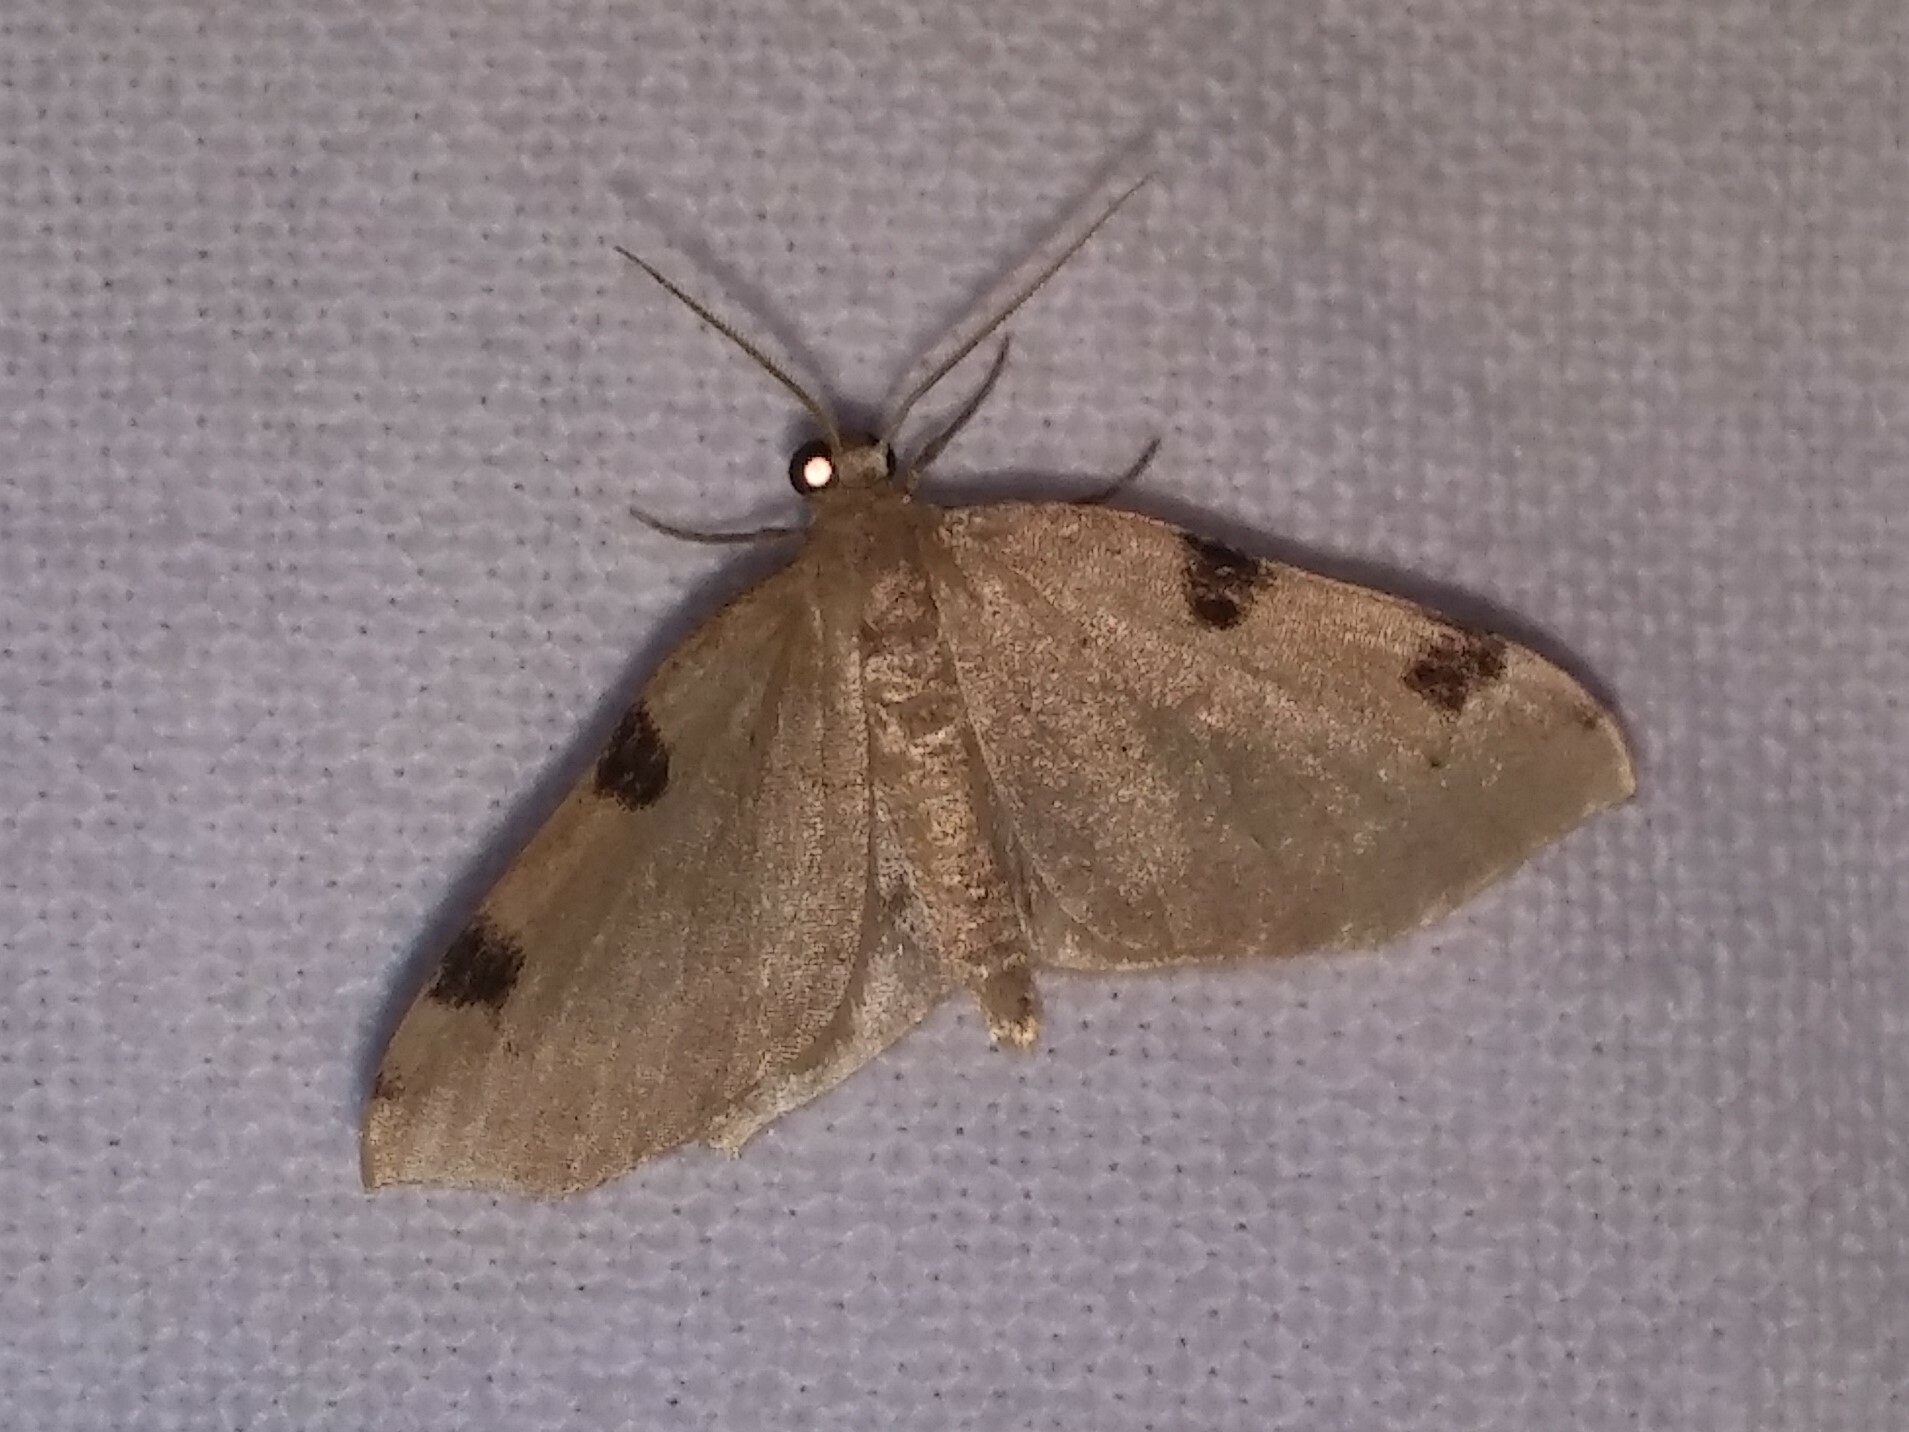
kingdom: Animalia
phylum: Arthropoda
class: Insecta
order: Lepidoptera
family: Geometridae
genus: Heterophleps
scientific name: Heterophleps triguttaria
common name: Three-spotted fillip
